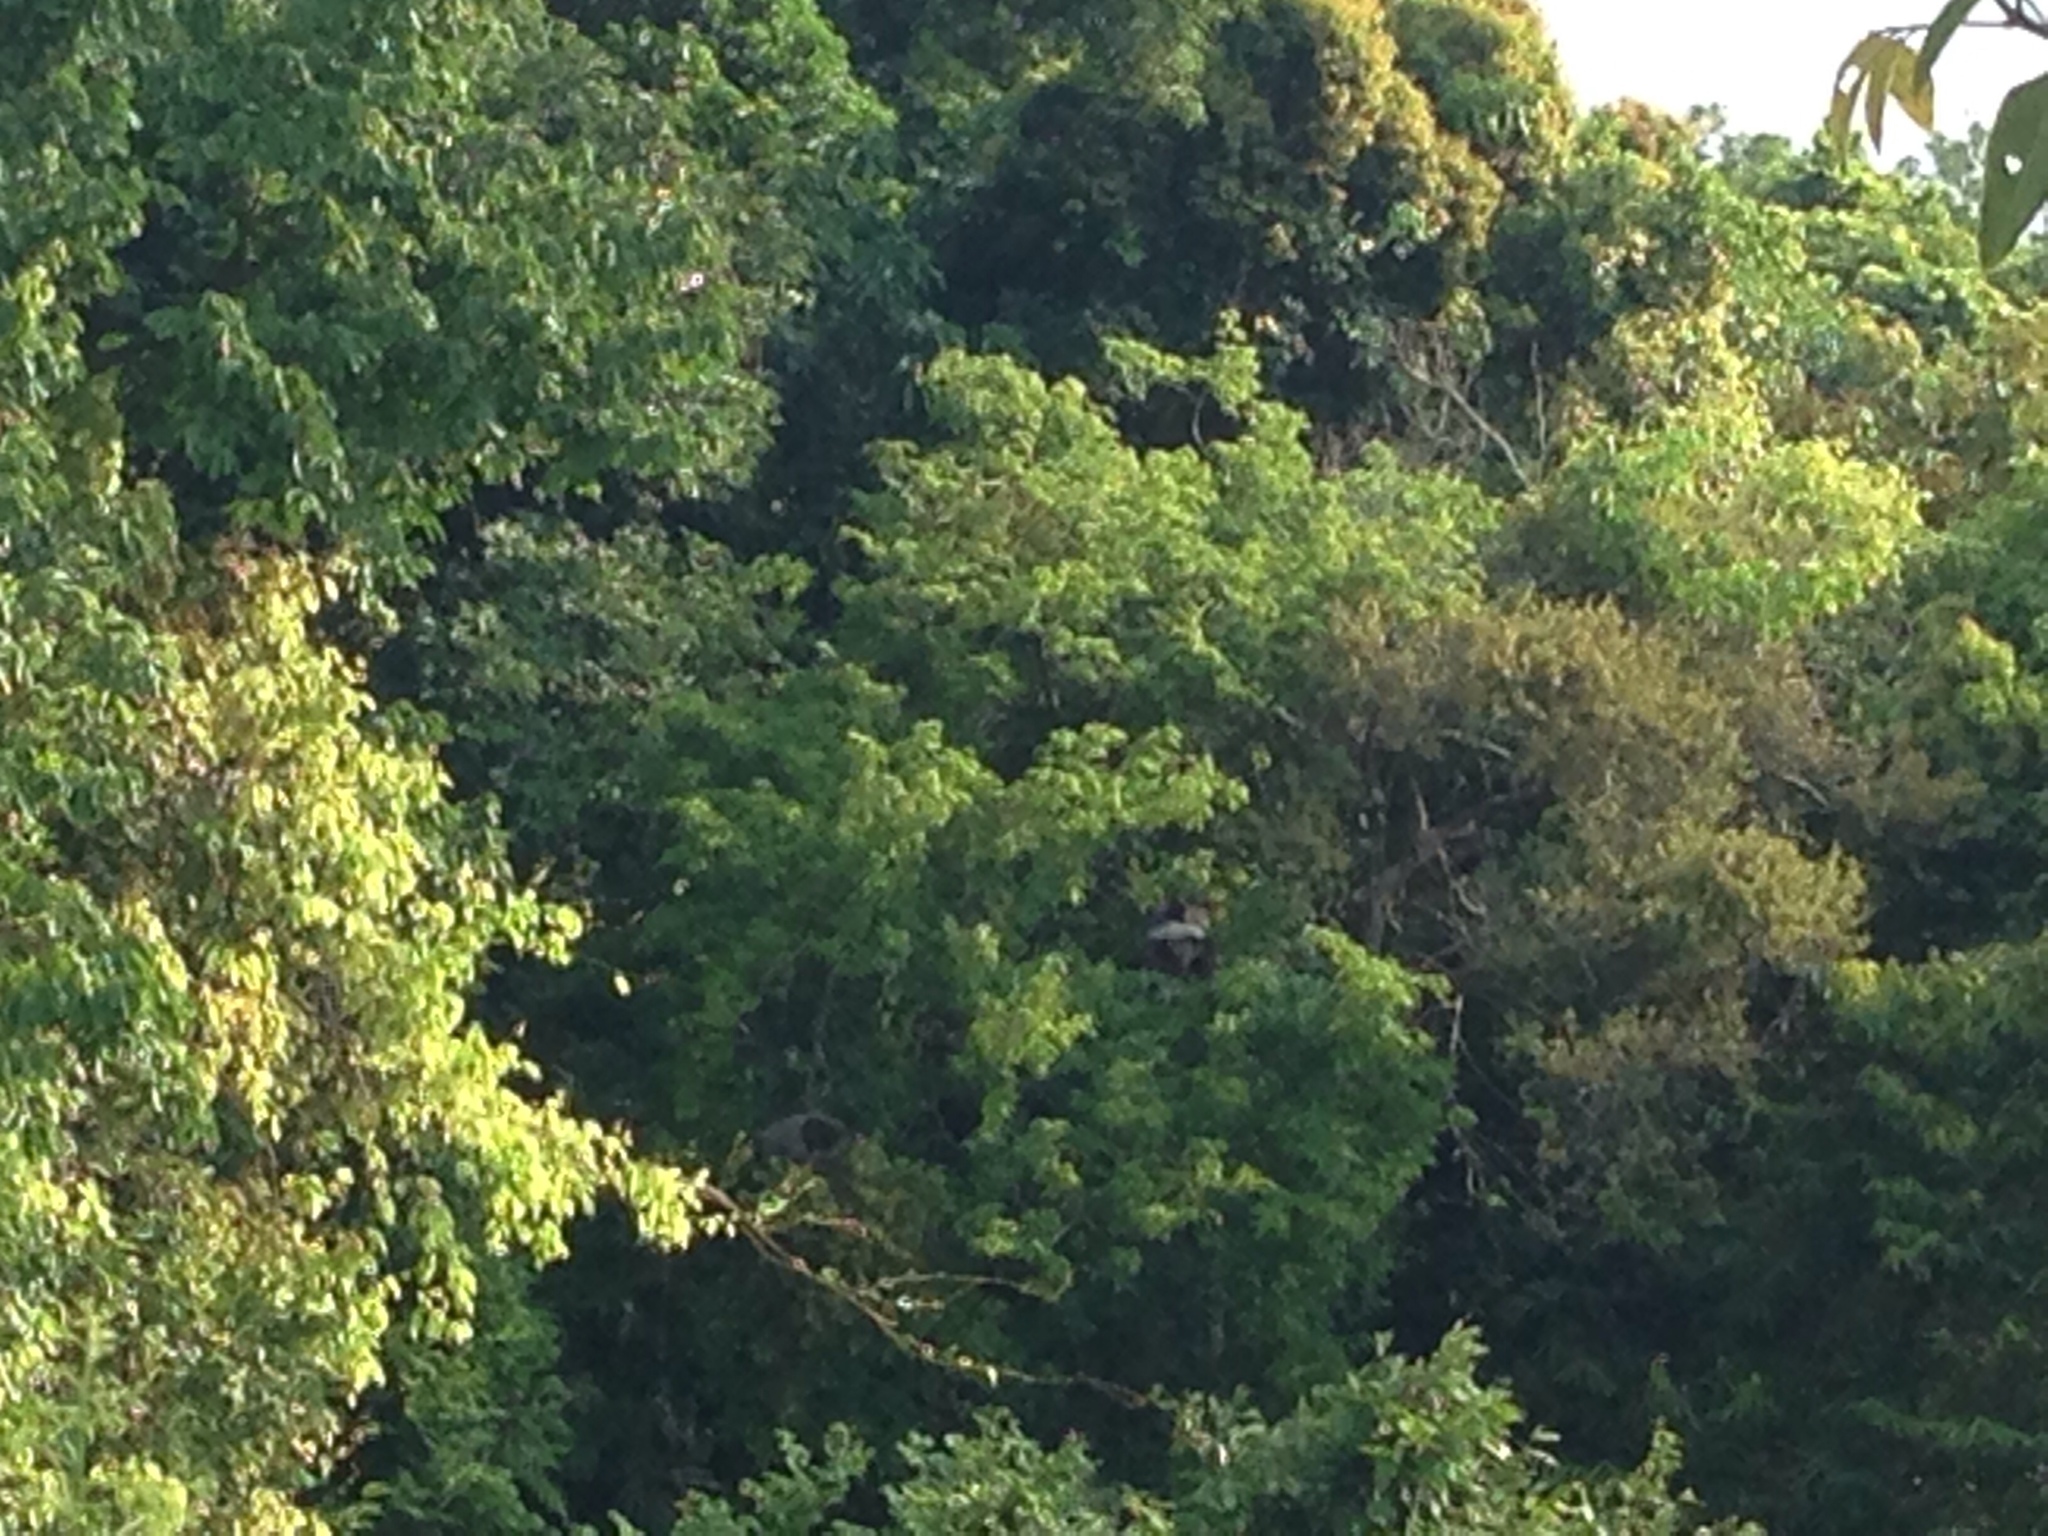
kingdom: Animalia
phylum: Chordata
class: Mammalia
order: Primates
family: Cercopithecidae
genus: Pygathrix
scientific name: Pygathrix nemaeus
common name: Red-shanked douc
